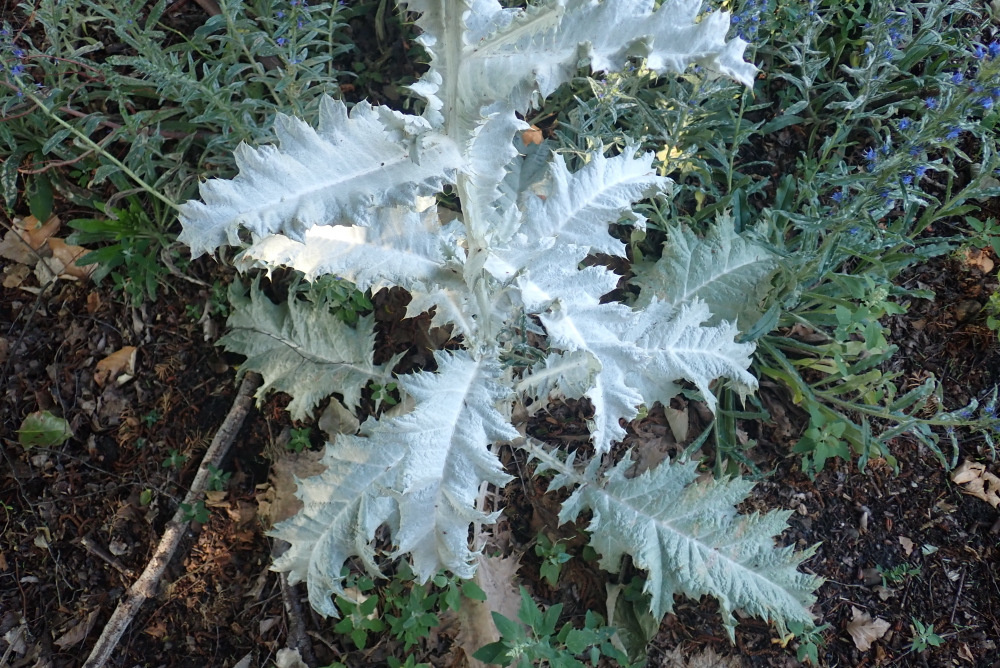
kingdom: Plantae
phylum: Tracheophyta
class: Magnoliopsida
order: Asterales
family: Asteraceae
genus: Onopordum
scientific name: Onopordum beckianum
